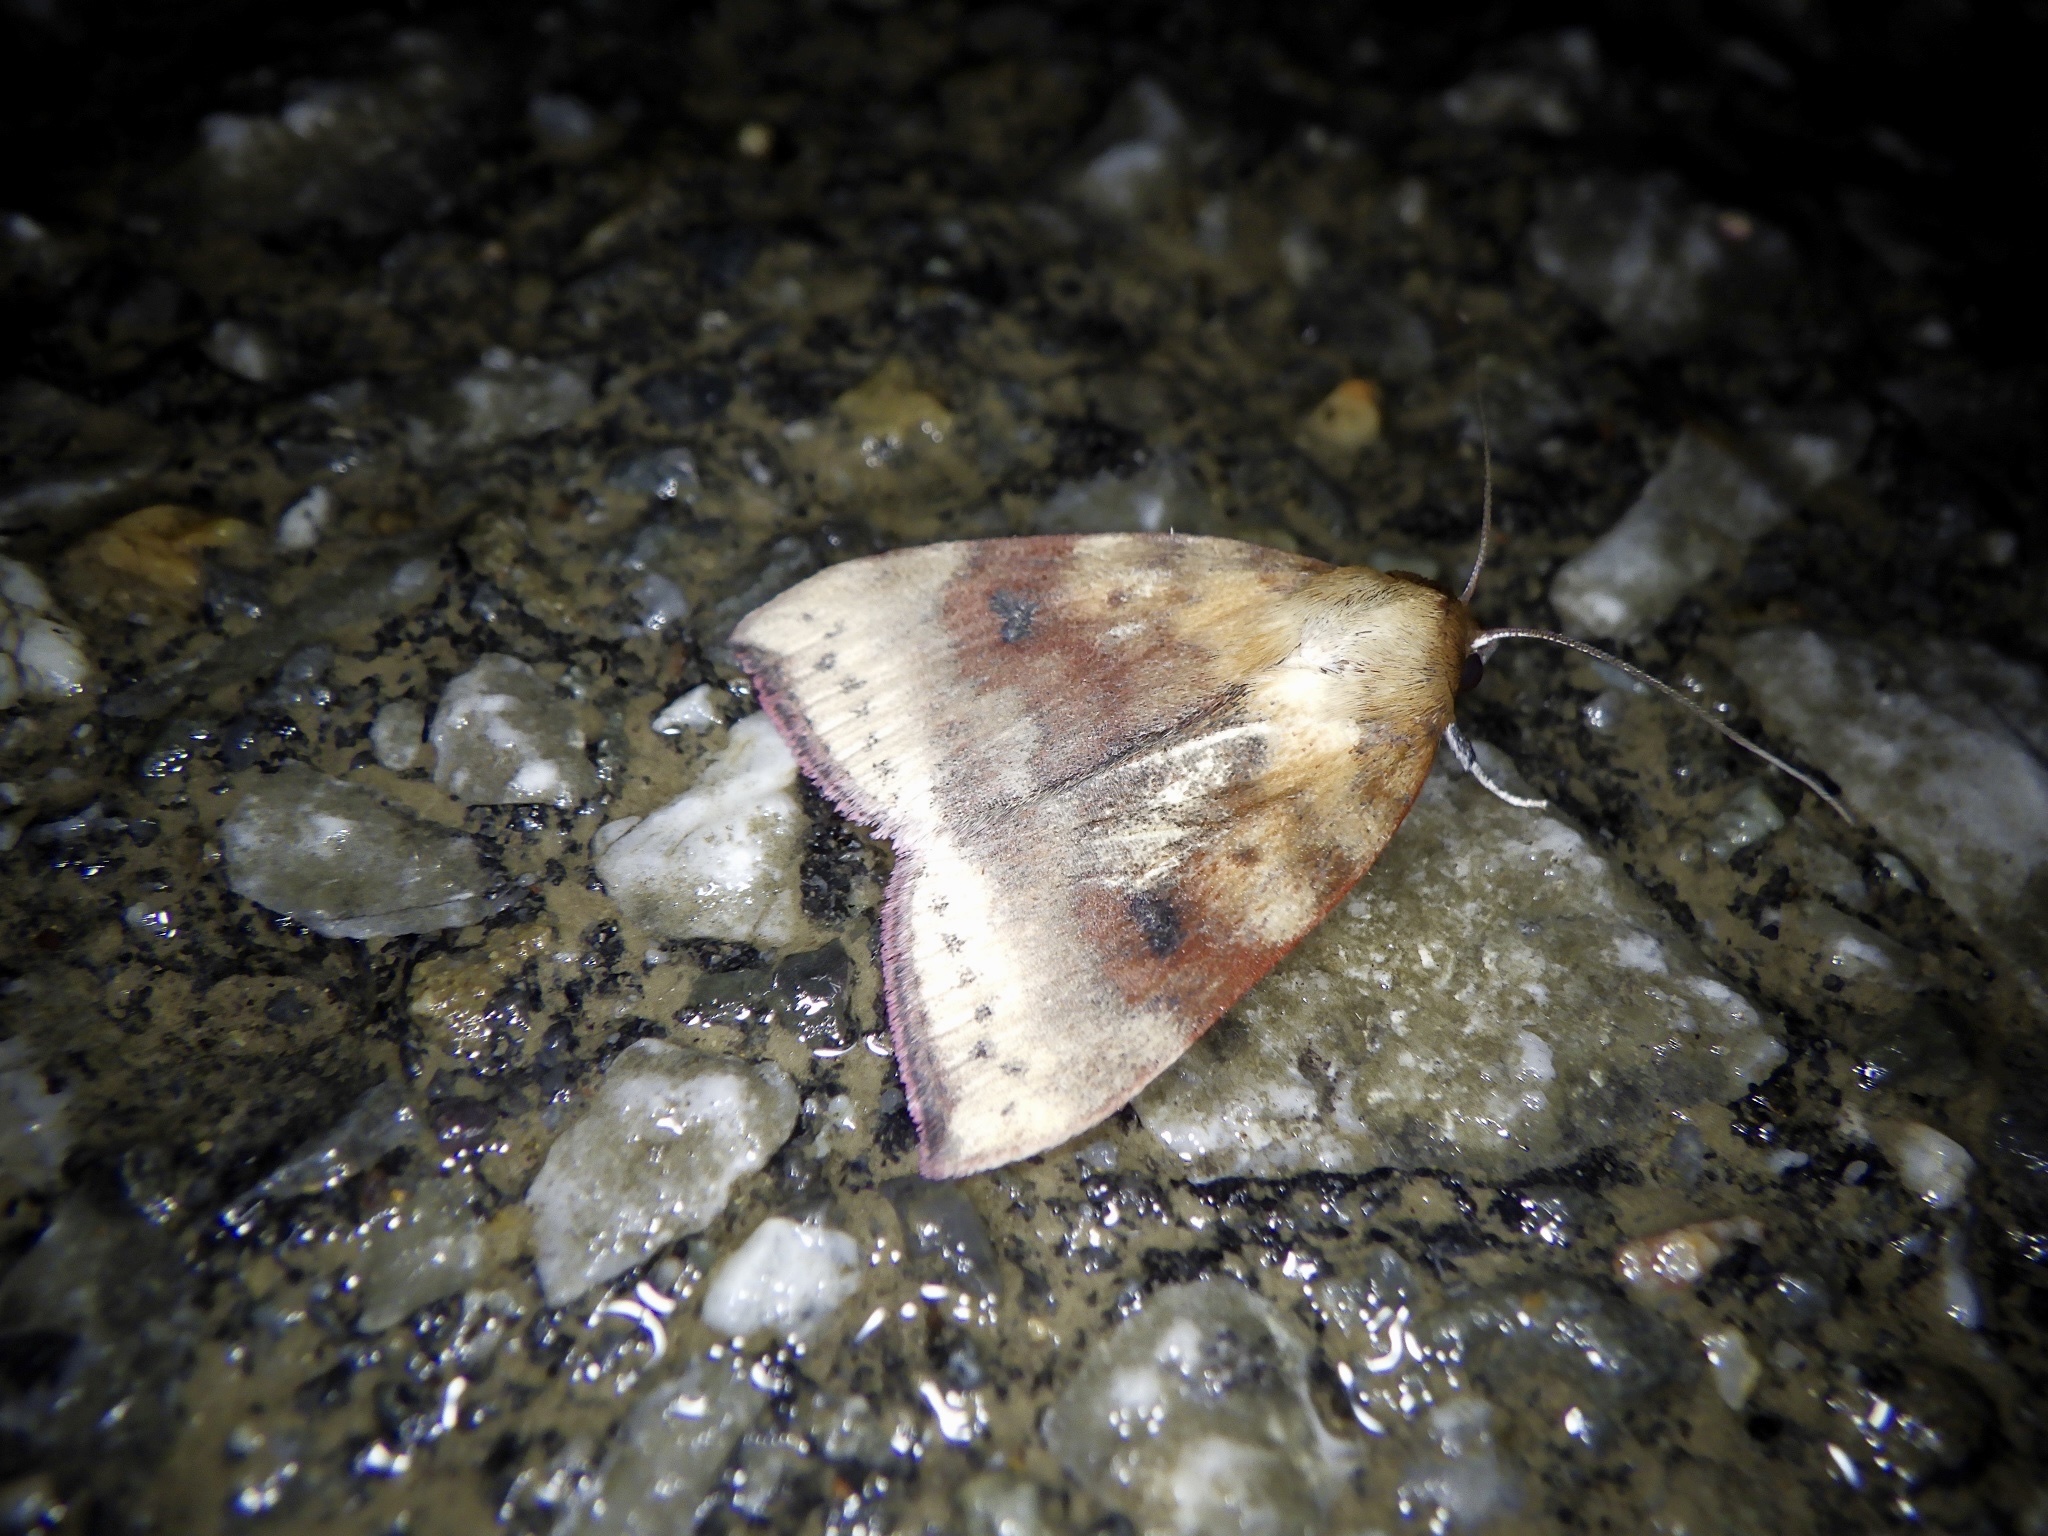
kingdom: Animalia
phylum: Arthropoda
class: Insecta
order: Lepidoptera
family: Nolidae
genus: Gelastocera
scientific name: Gelastocera kotshubeji
